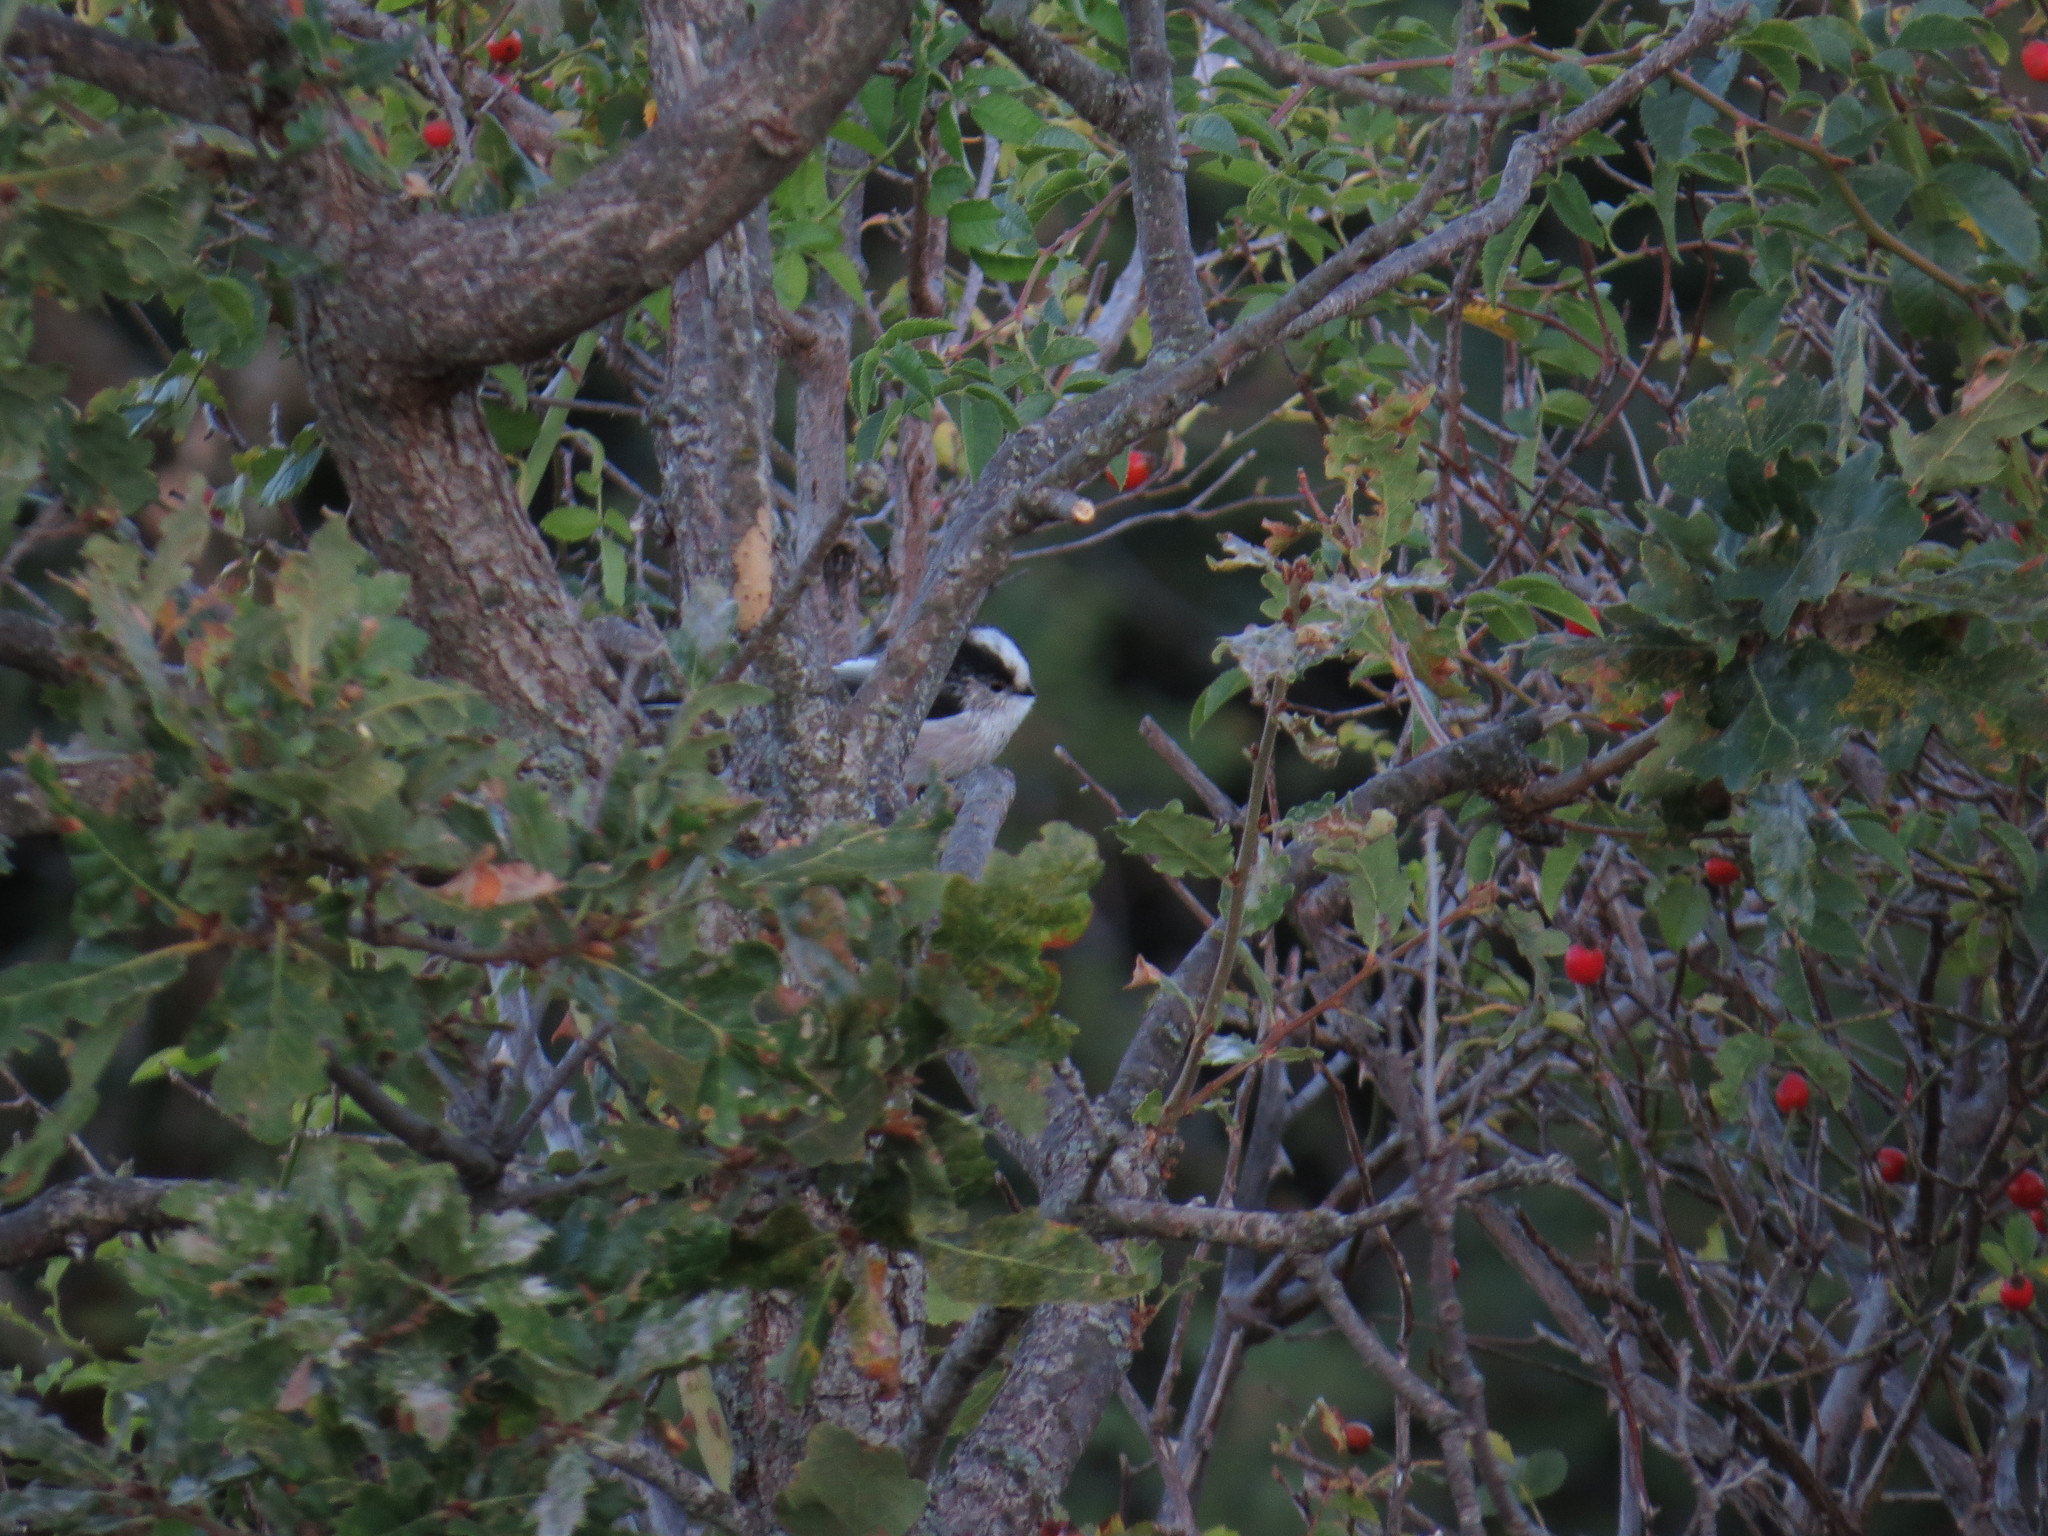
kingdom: Animalia
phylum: Chordata
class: Aves
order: Passeriformes
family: Aegithalidae
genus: Aegithalos
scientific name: Aegithalos caudatus
